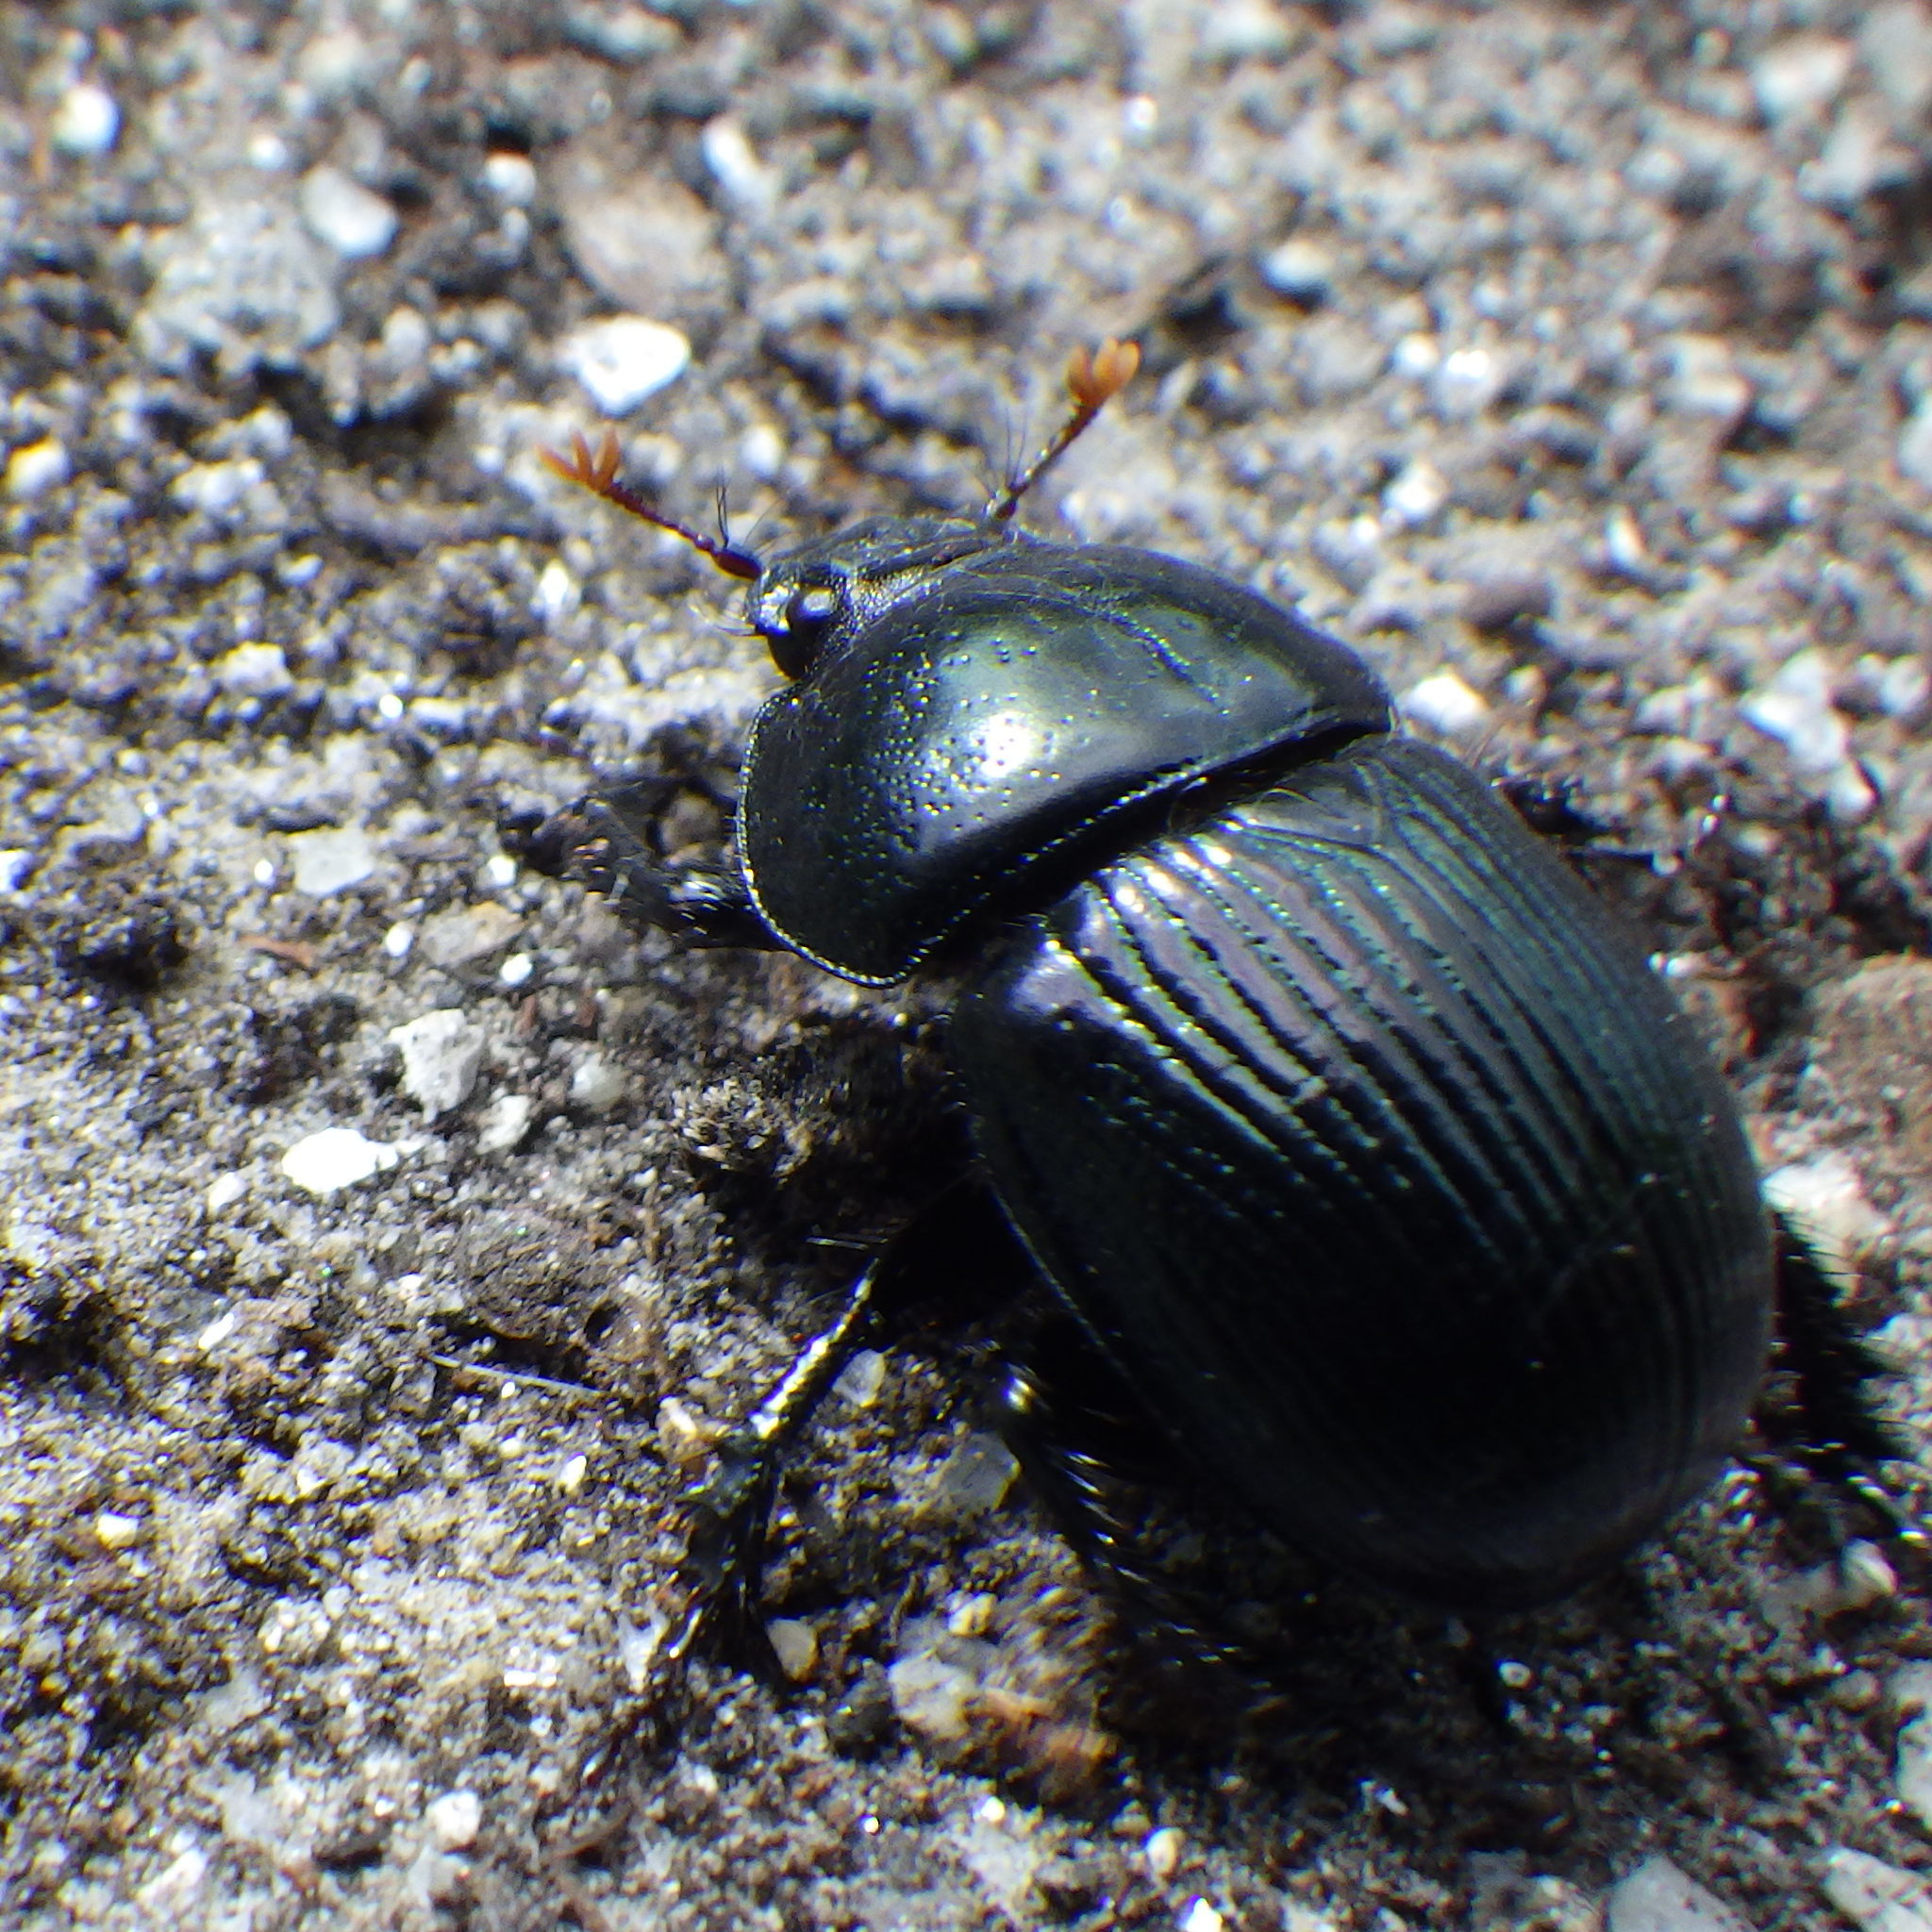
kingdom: Animalia
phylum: Arthropoda
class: Insecta
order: Coleoptera
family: Geotrupidae
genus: Anoplotrupes
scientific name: Anoplotrupes balyi
